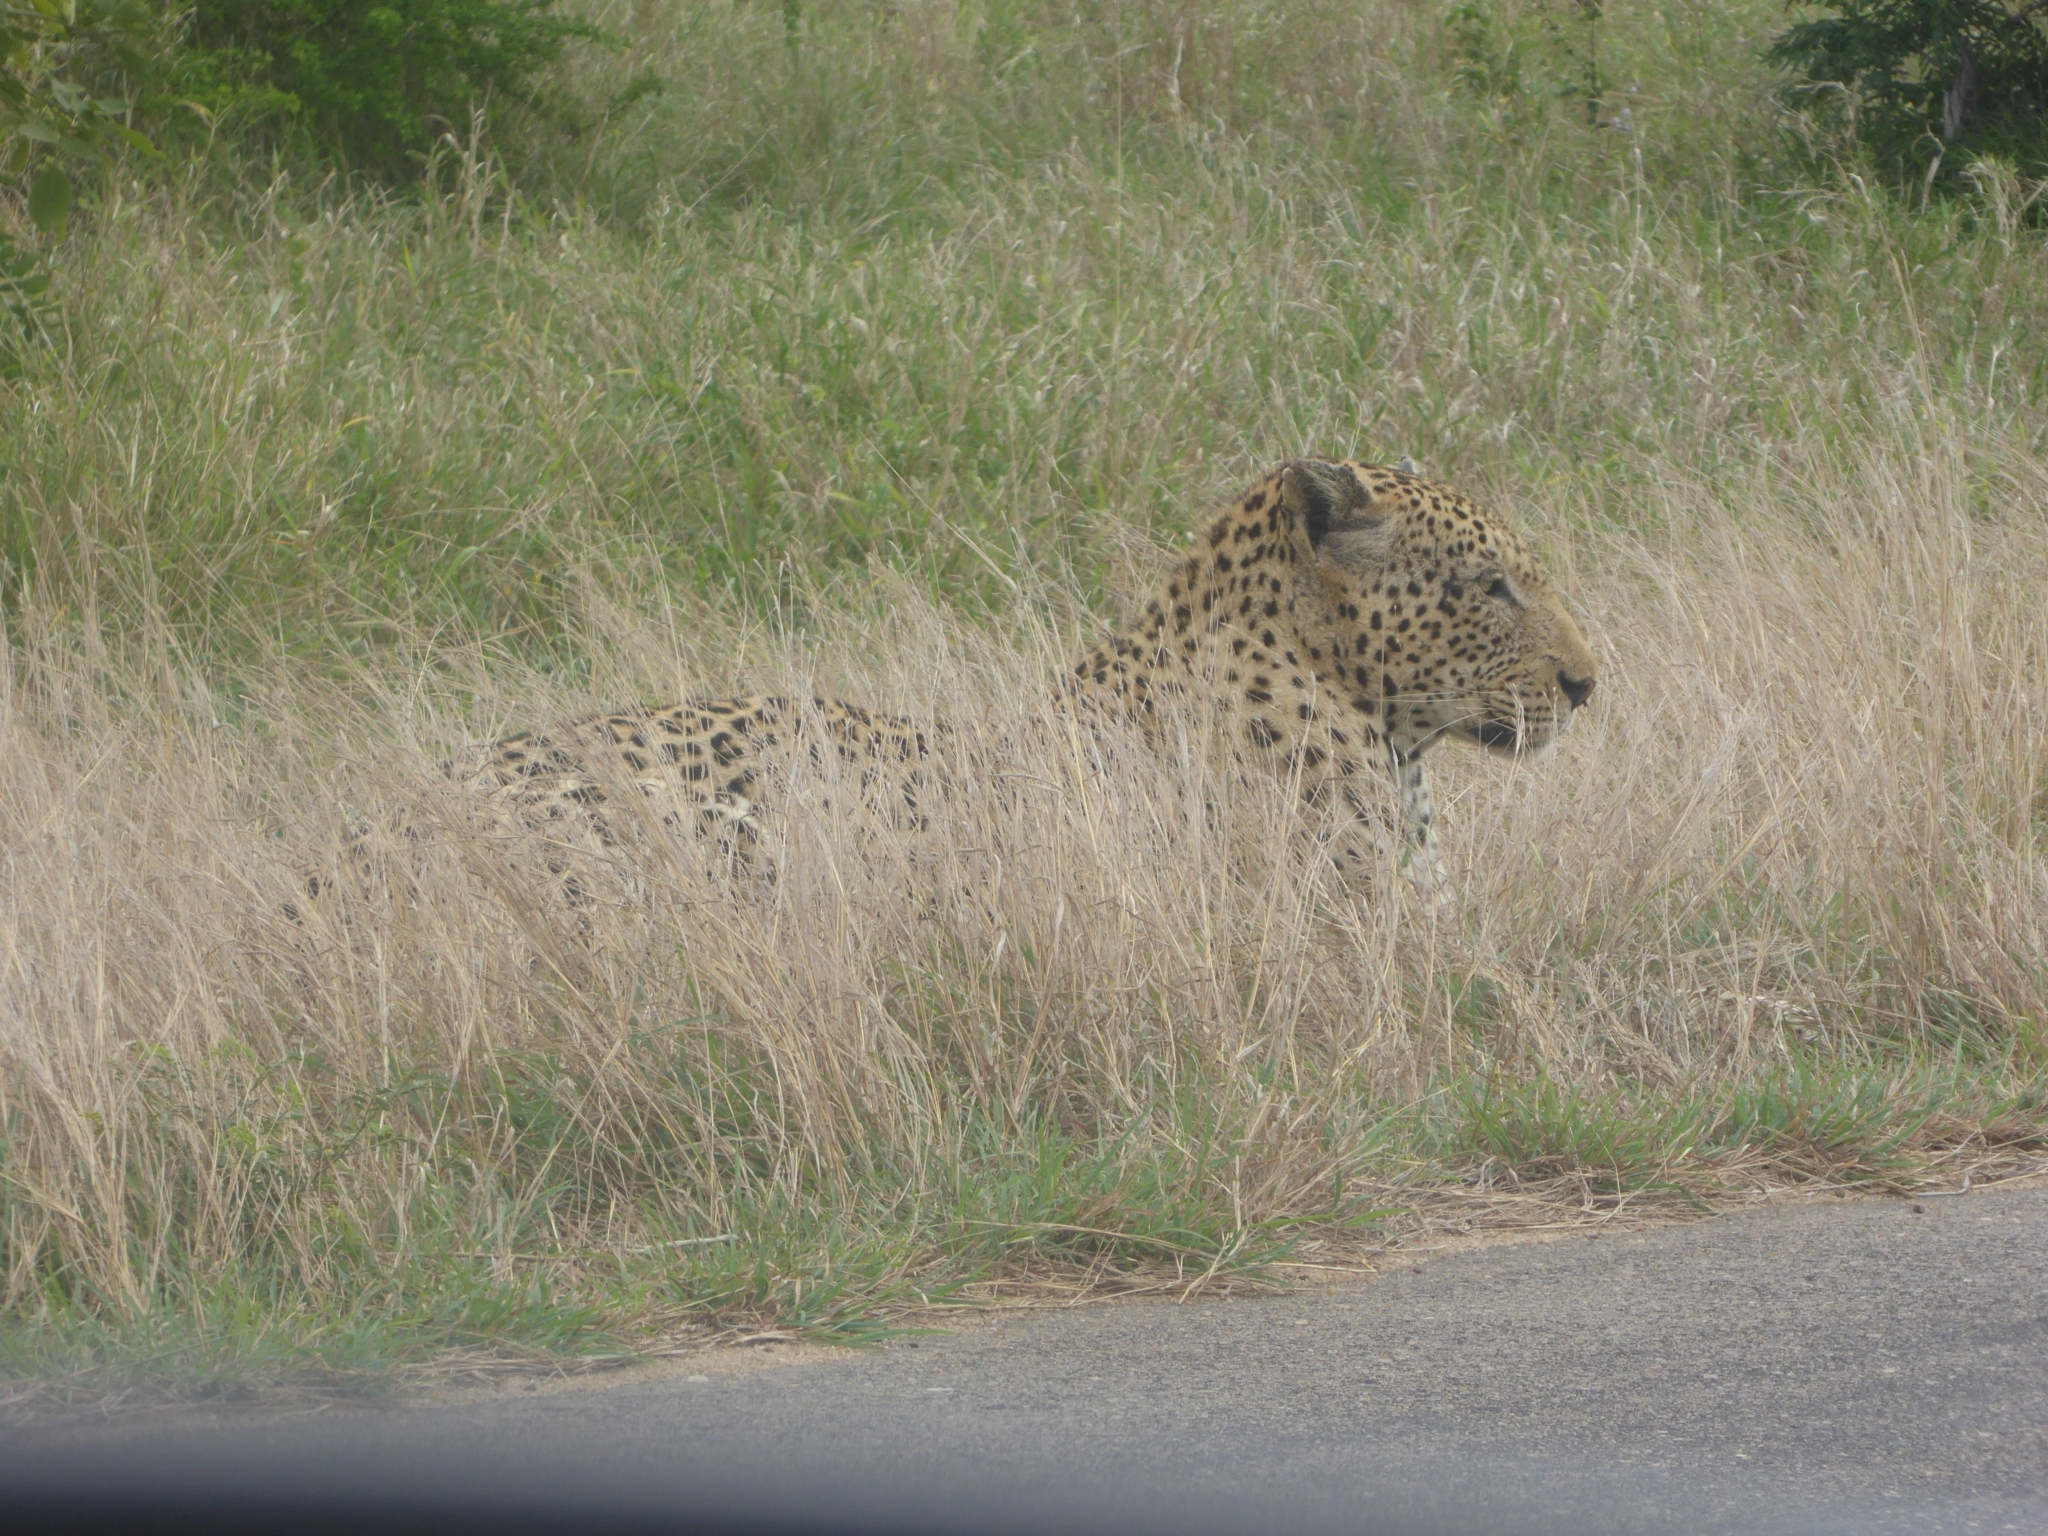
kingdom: Animalia
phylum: Chordata
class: Mammalia
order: Carnivora
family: Felidae
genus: Panthera
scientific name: Panthera pardus
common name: Leopard
